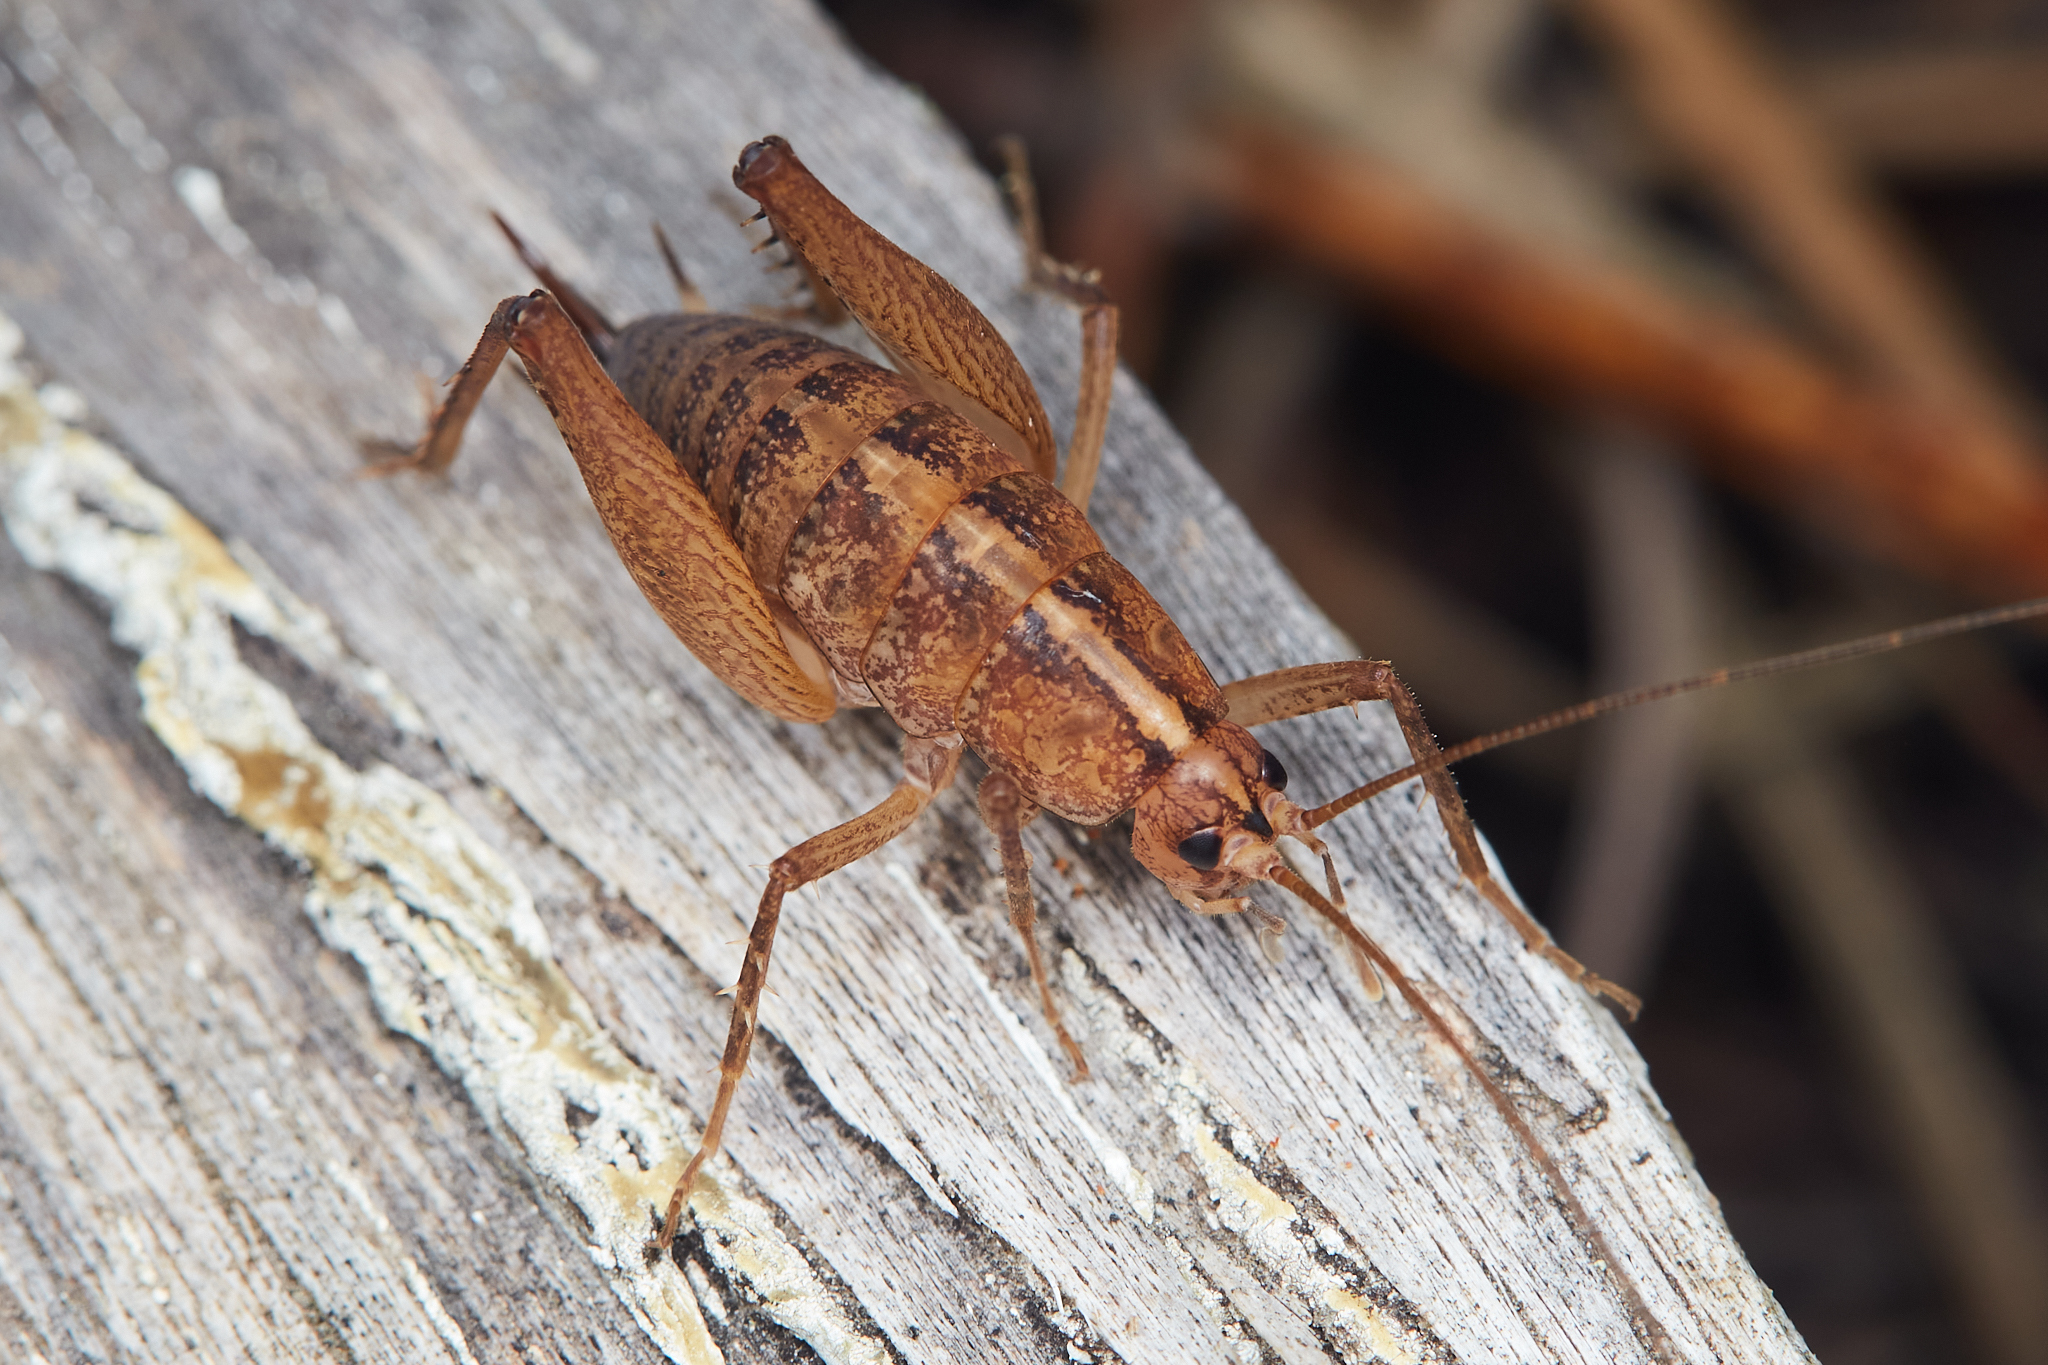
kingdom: Animalia
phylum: Arthropoda
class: Insecta
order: Orthoptera
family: Rhaphidophoridae
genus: Pristoceuthophilus
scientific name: Pristoceuthophilus
